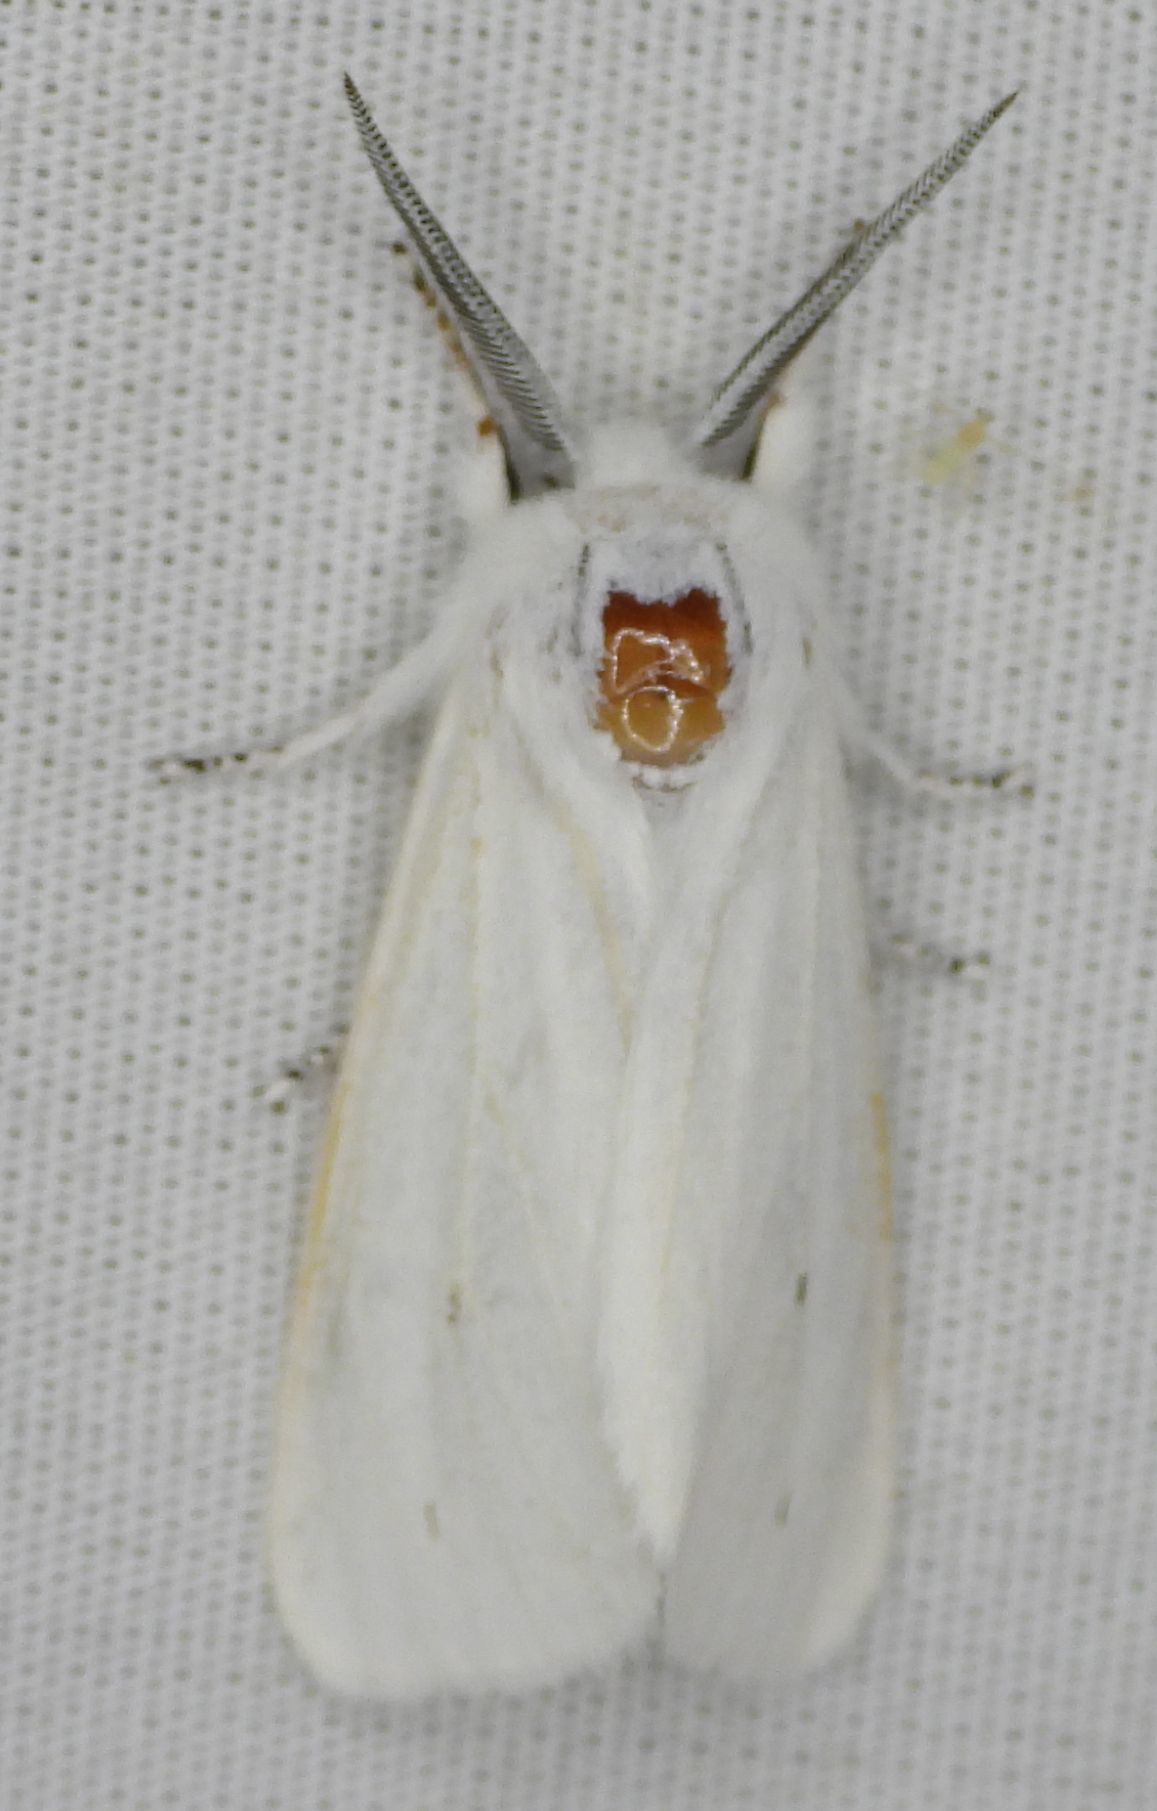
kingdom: Animalia
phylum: Arthropoda
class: Insecta
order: Lepidoptera
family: Erebidae
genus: Spilosoma
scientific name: Spilosoma virginica
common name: Virginia tiger moth
